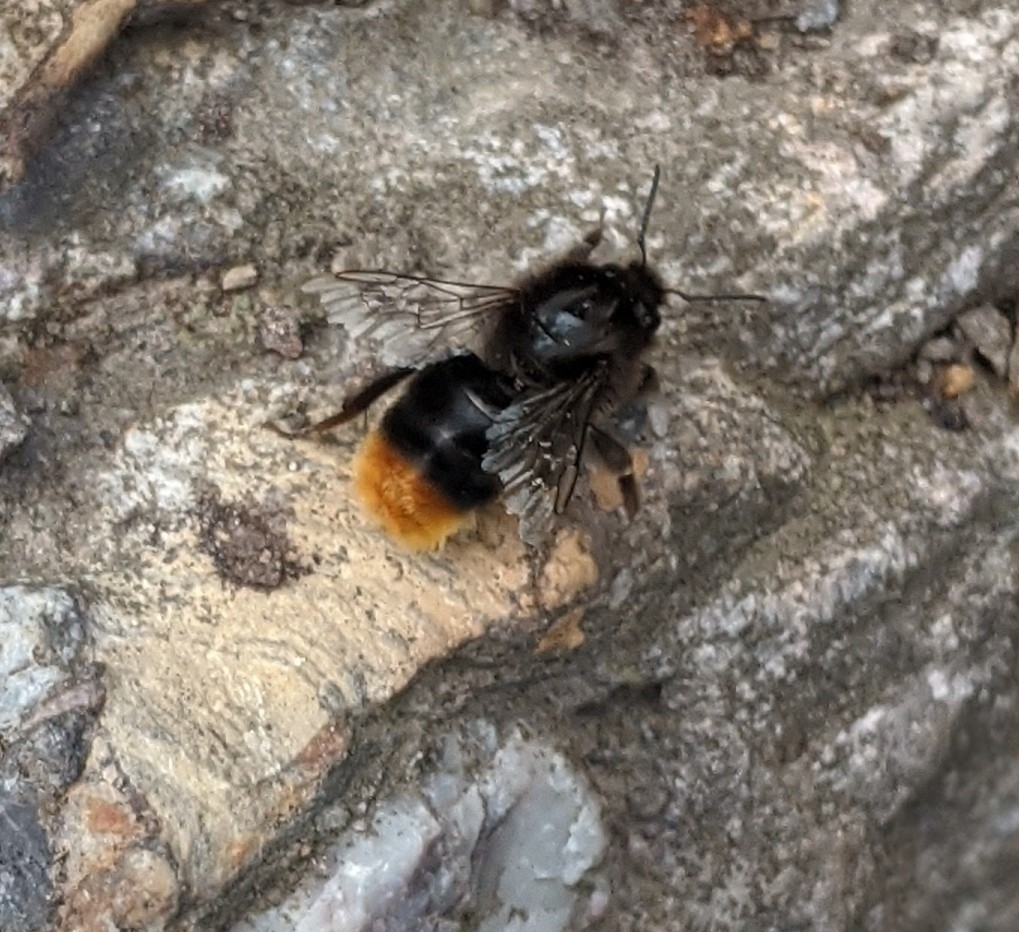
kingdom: Animalia
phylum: Arthropoda
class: Insecta
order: Hymenoptera
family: Apidae
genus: Bombus
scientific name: Bombus lapidarius
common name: Large red-tailed humble-bee
